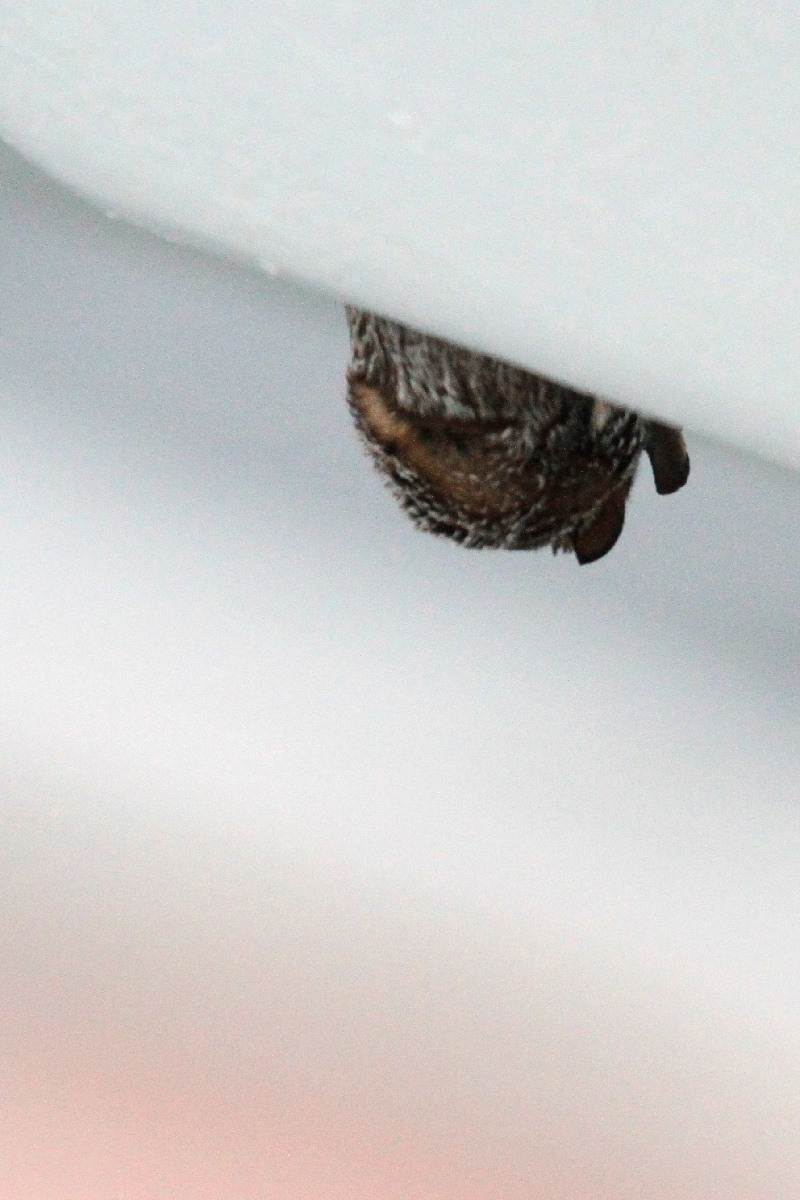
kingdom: Animalia
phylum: Chordata
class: Mammalia
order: Chiroptera
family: Vespertilionidae
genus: Aeorestes
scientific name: Aeorestes cinereus
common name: North american hoary bat
